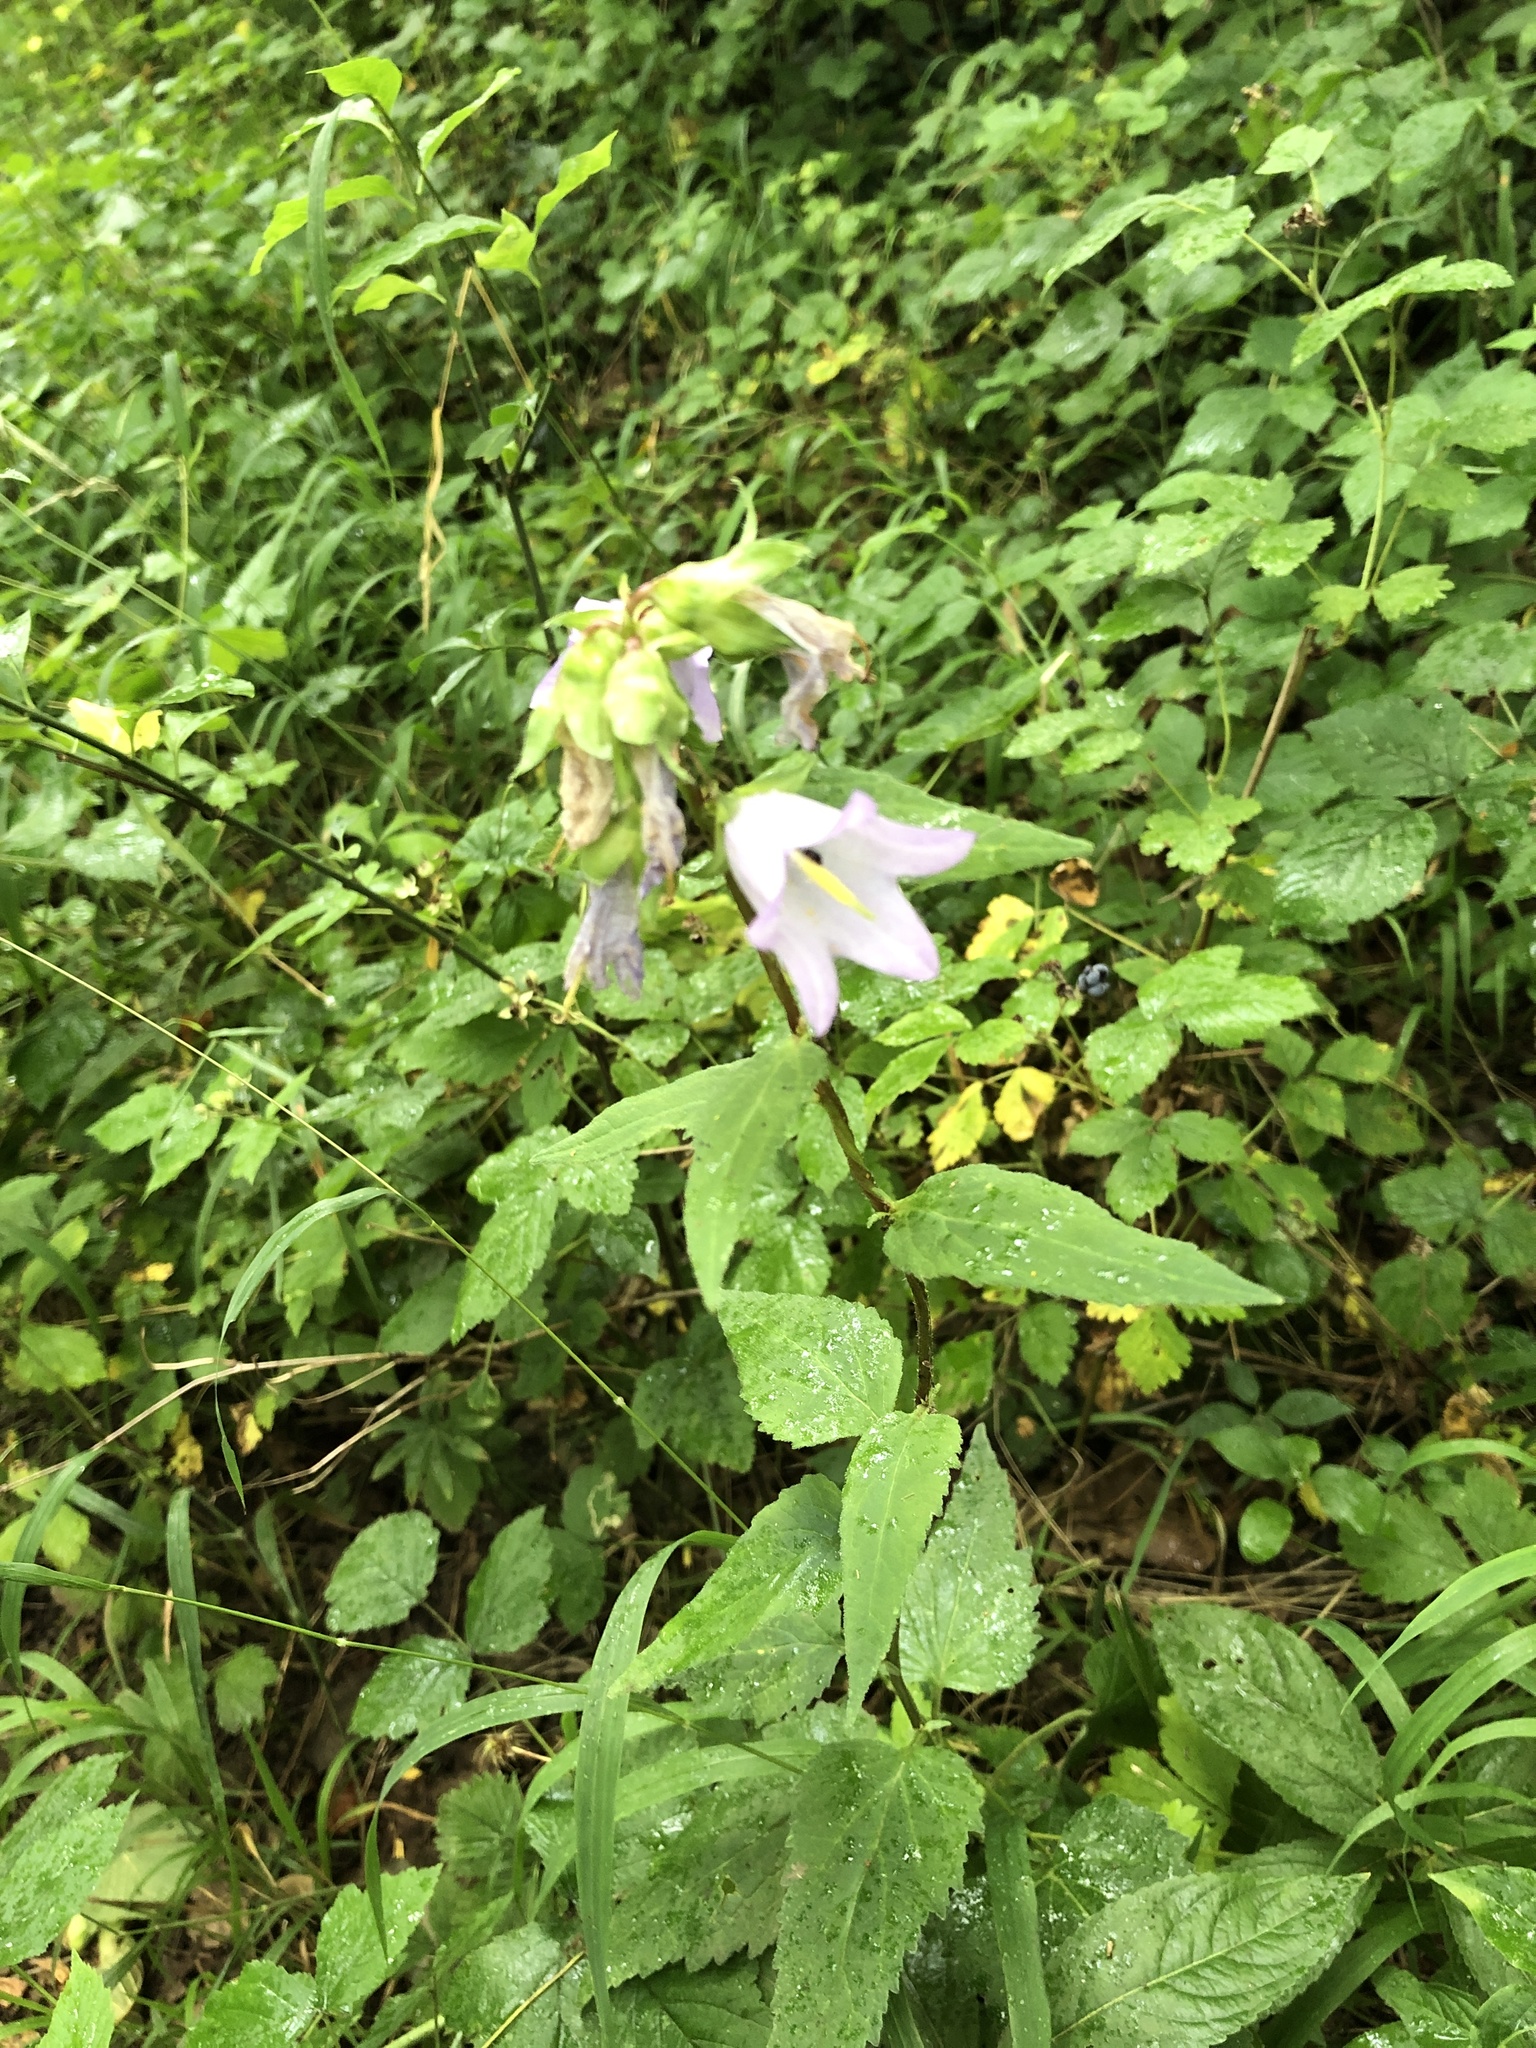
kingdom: Plantae
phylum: Tracheophyta
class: Magnoliopsida
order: Asterales
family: Campanulaceae
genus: Campanula
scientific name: Campanula latifolia
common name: Giant bellflower
